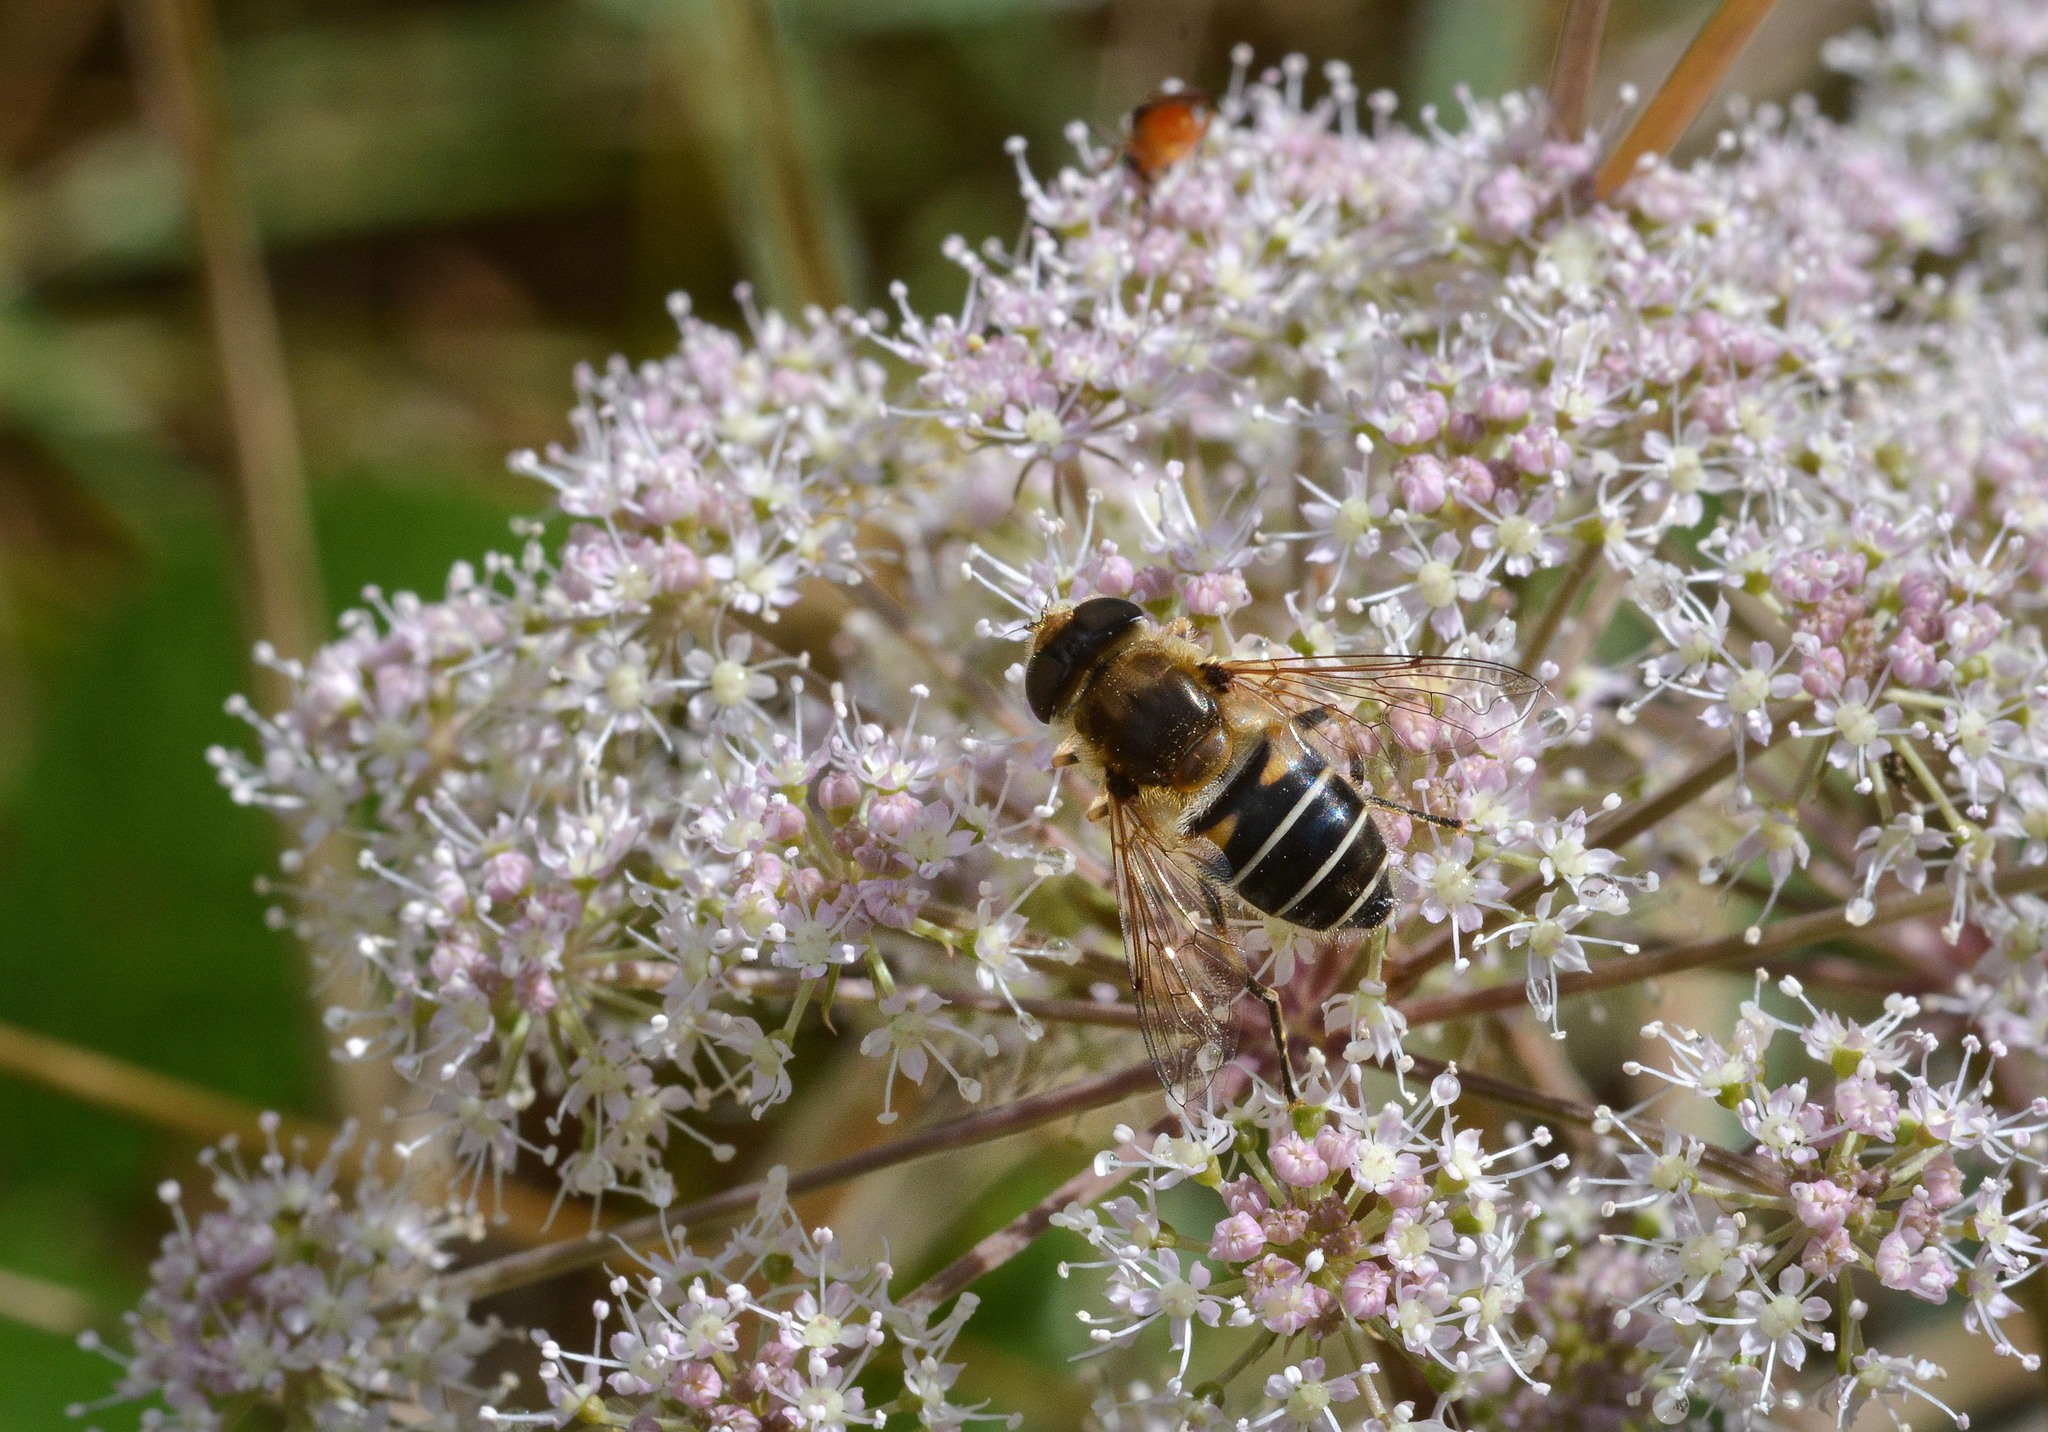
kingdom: Animalia
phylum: Arthropoda
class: Insecta
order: Diptera
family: Syrphidae
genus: Eristalis
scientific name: Eristalis nemorum
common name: Orange-spined drone fly
